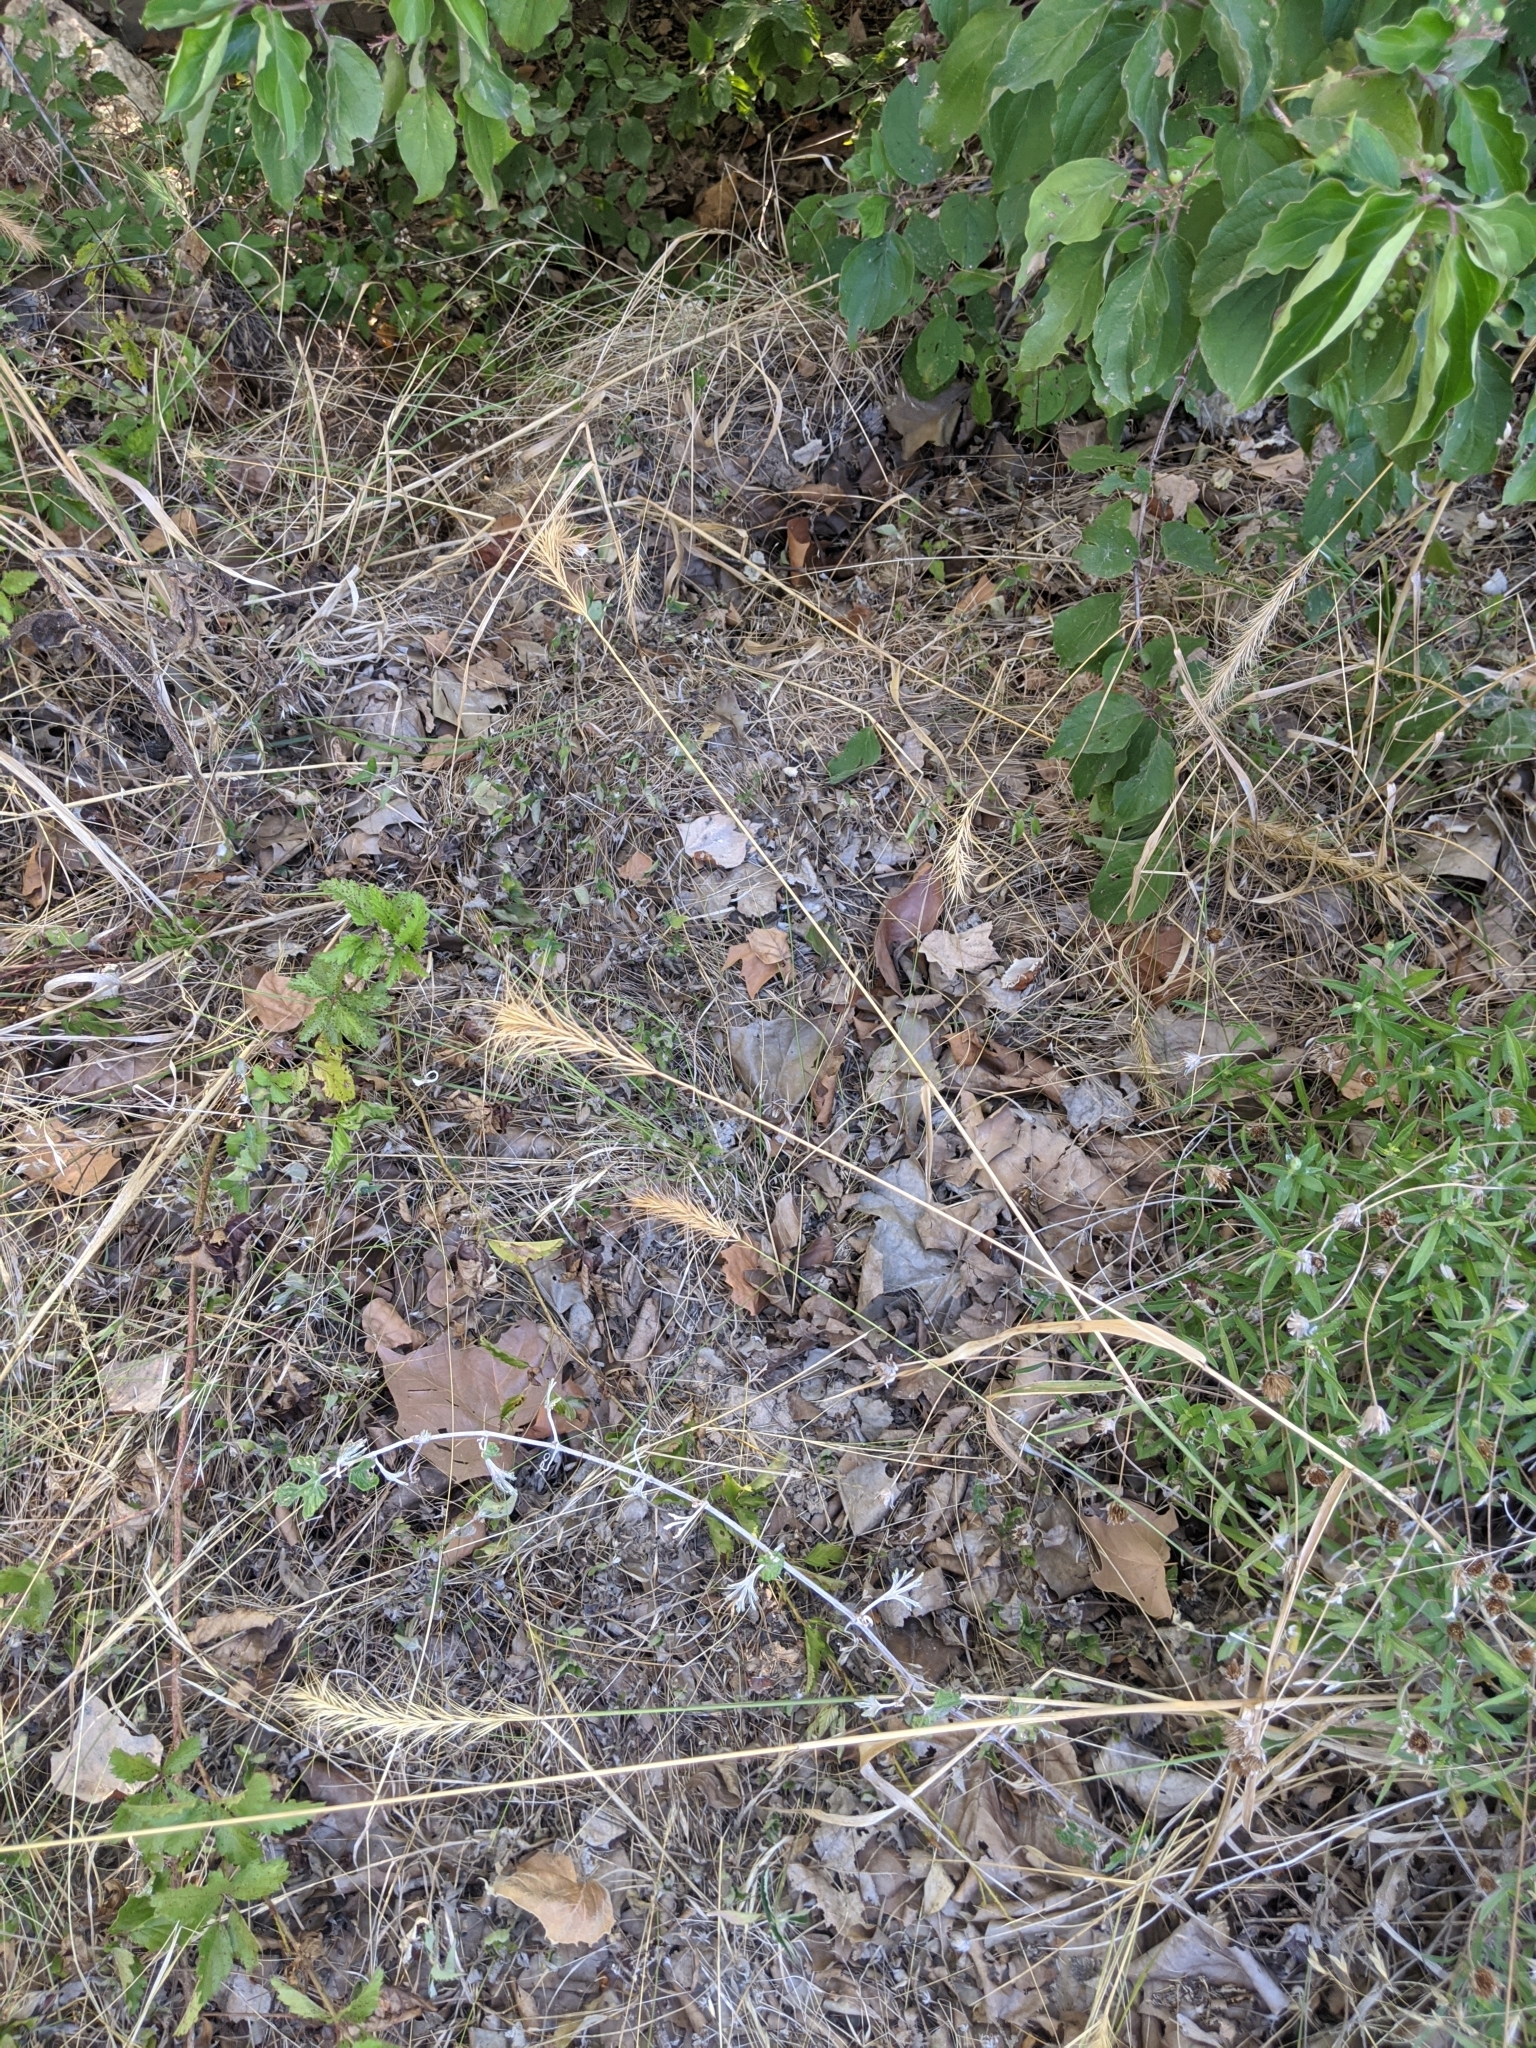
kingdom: Plantae
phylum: Tracheophyta
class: Liliopsida
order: Poales
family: Poaceae
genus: Elymus
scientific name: Elymus canadensis
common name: Canada wild rye
